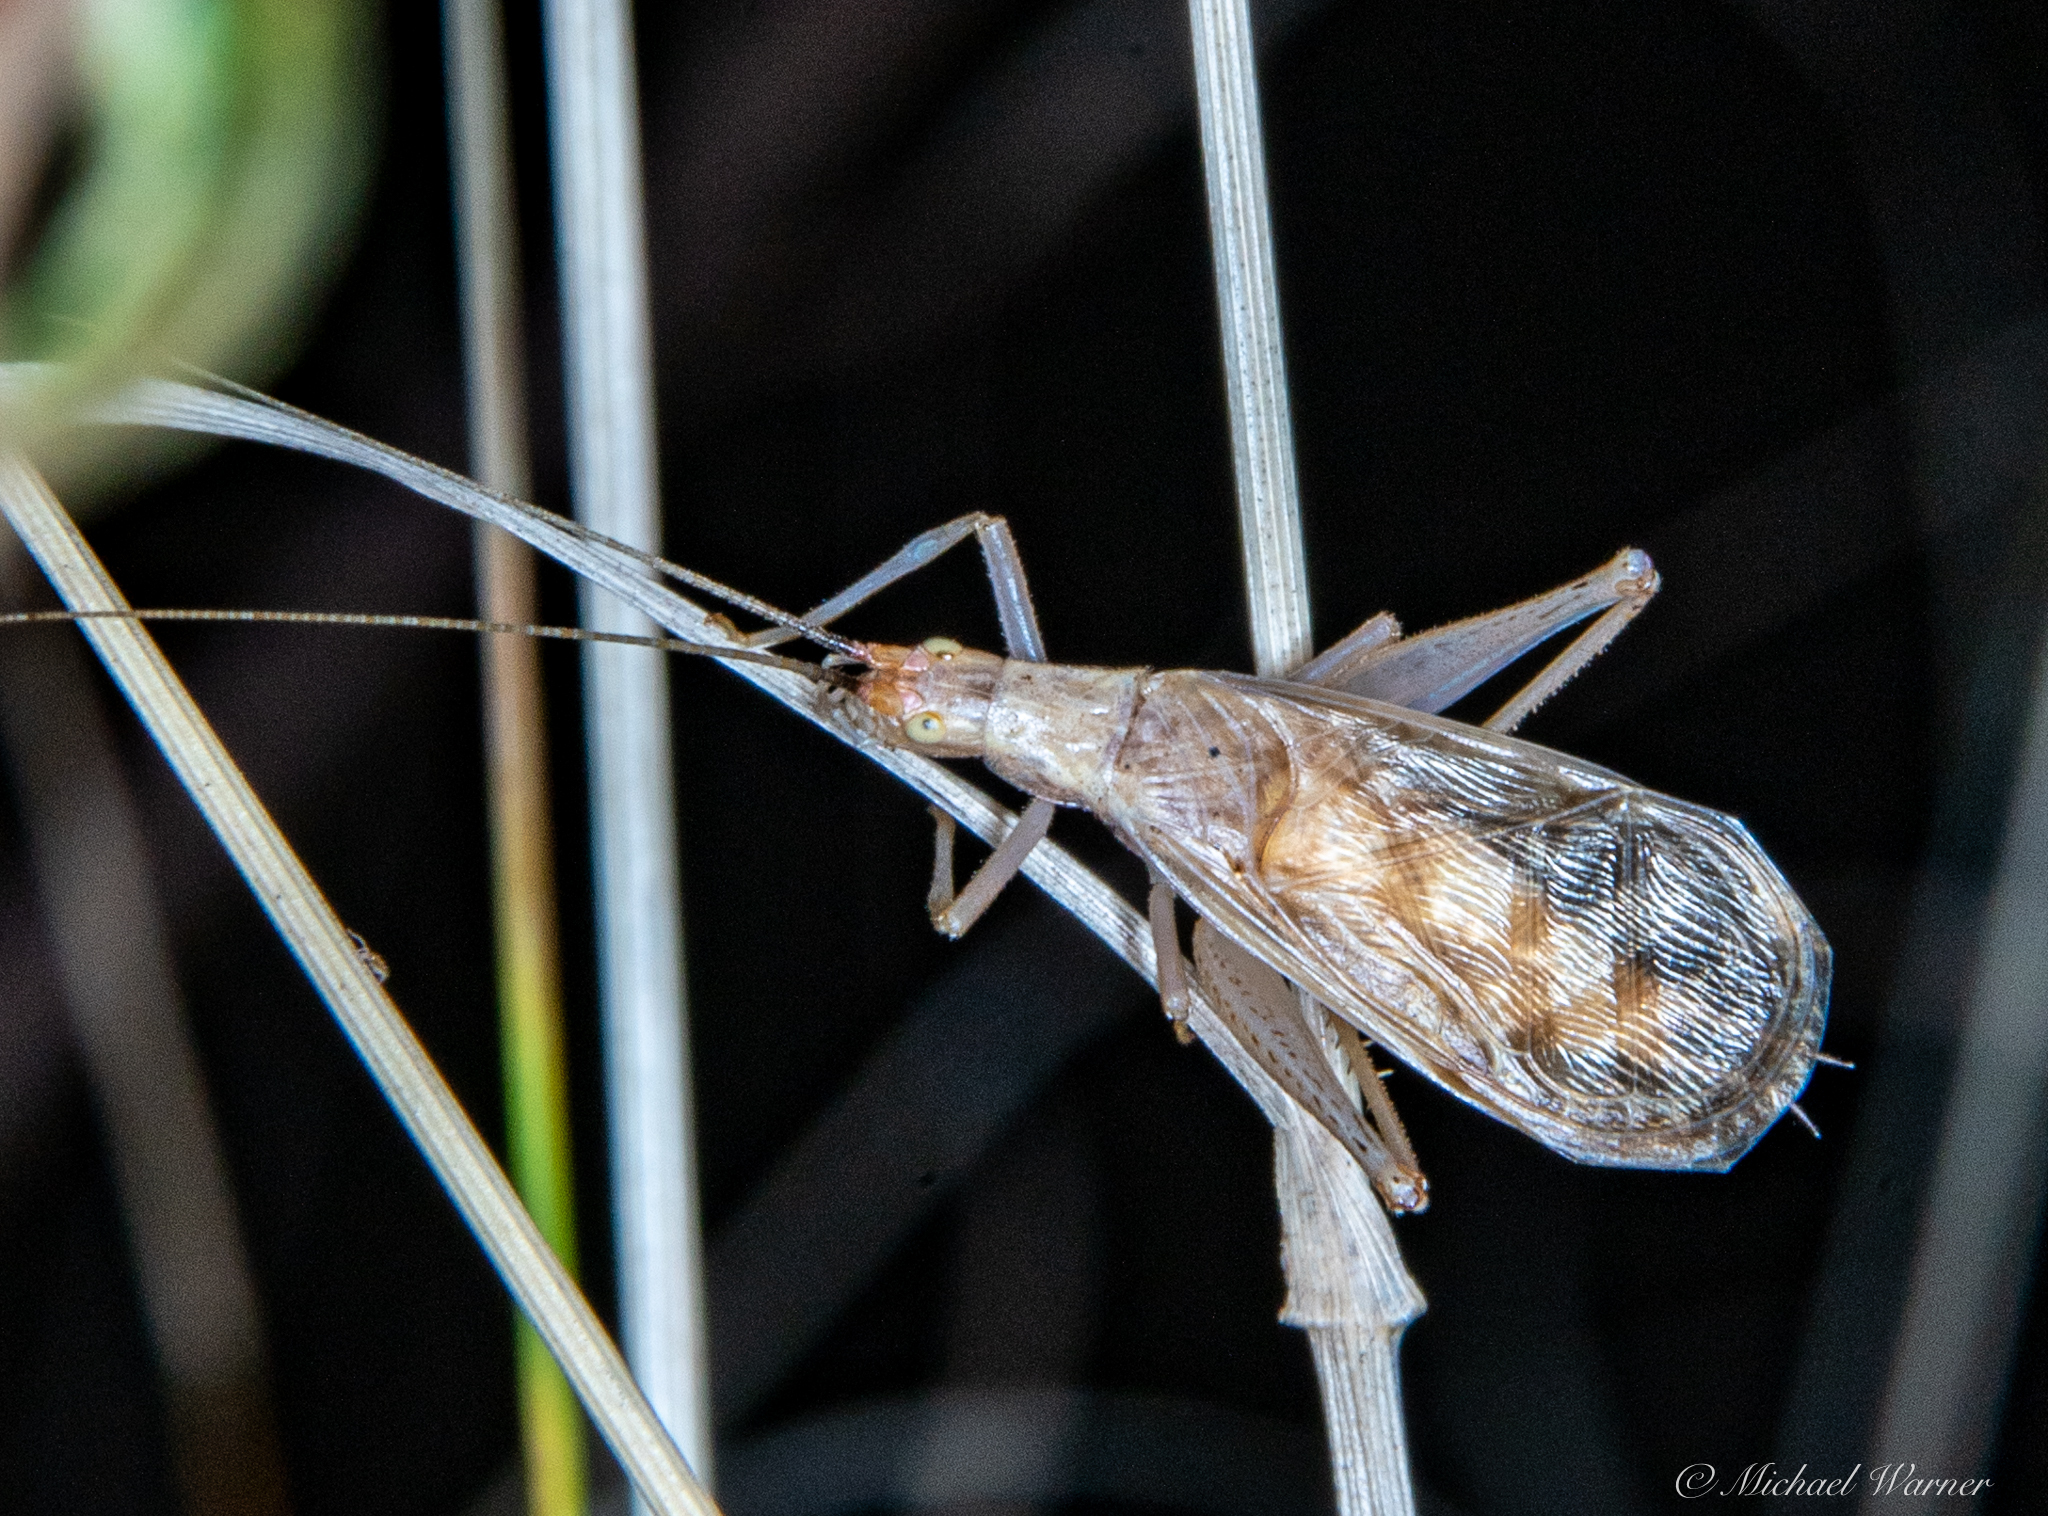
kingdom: Animalia
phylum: Arthropoda
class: Insecta
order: Orthoptera
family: Gryllidae
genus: Oecanthus
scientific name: Oecanthus californicus
